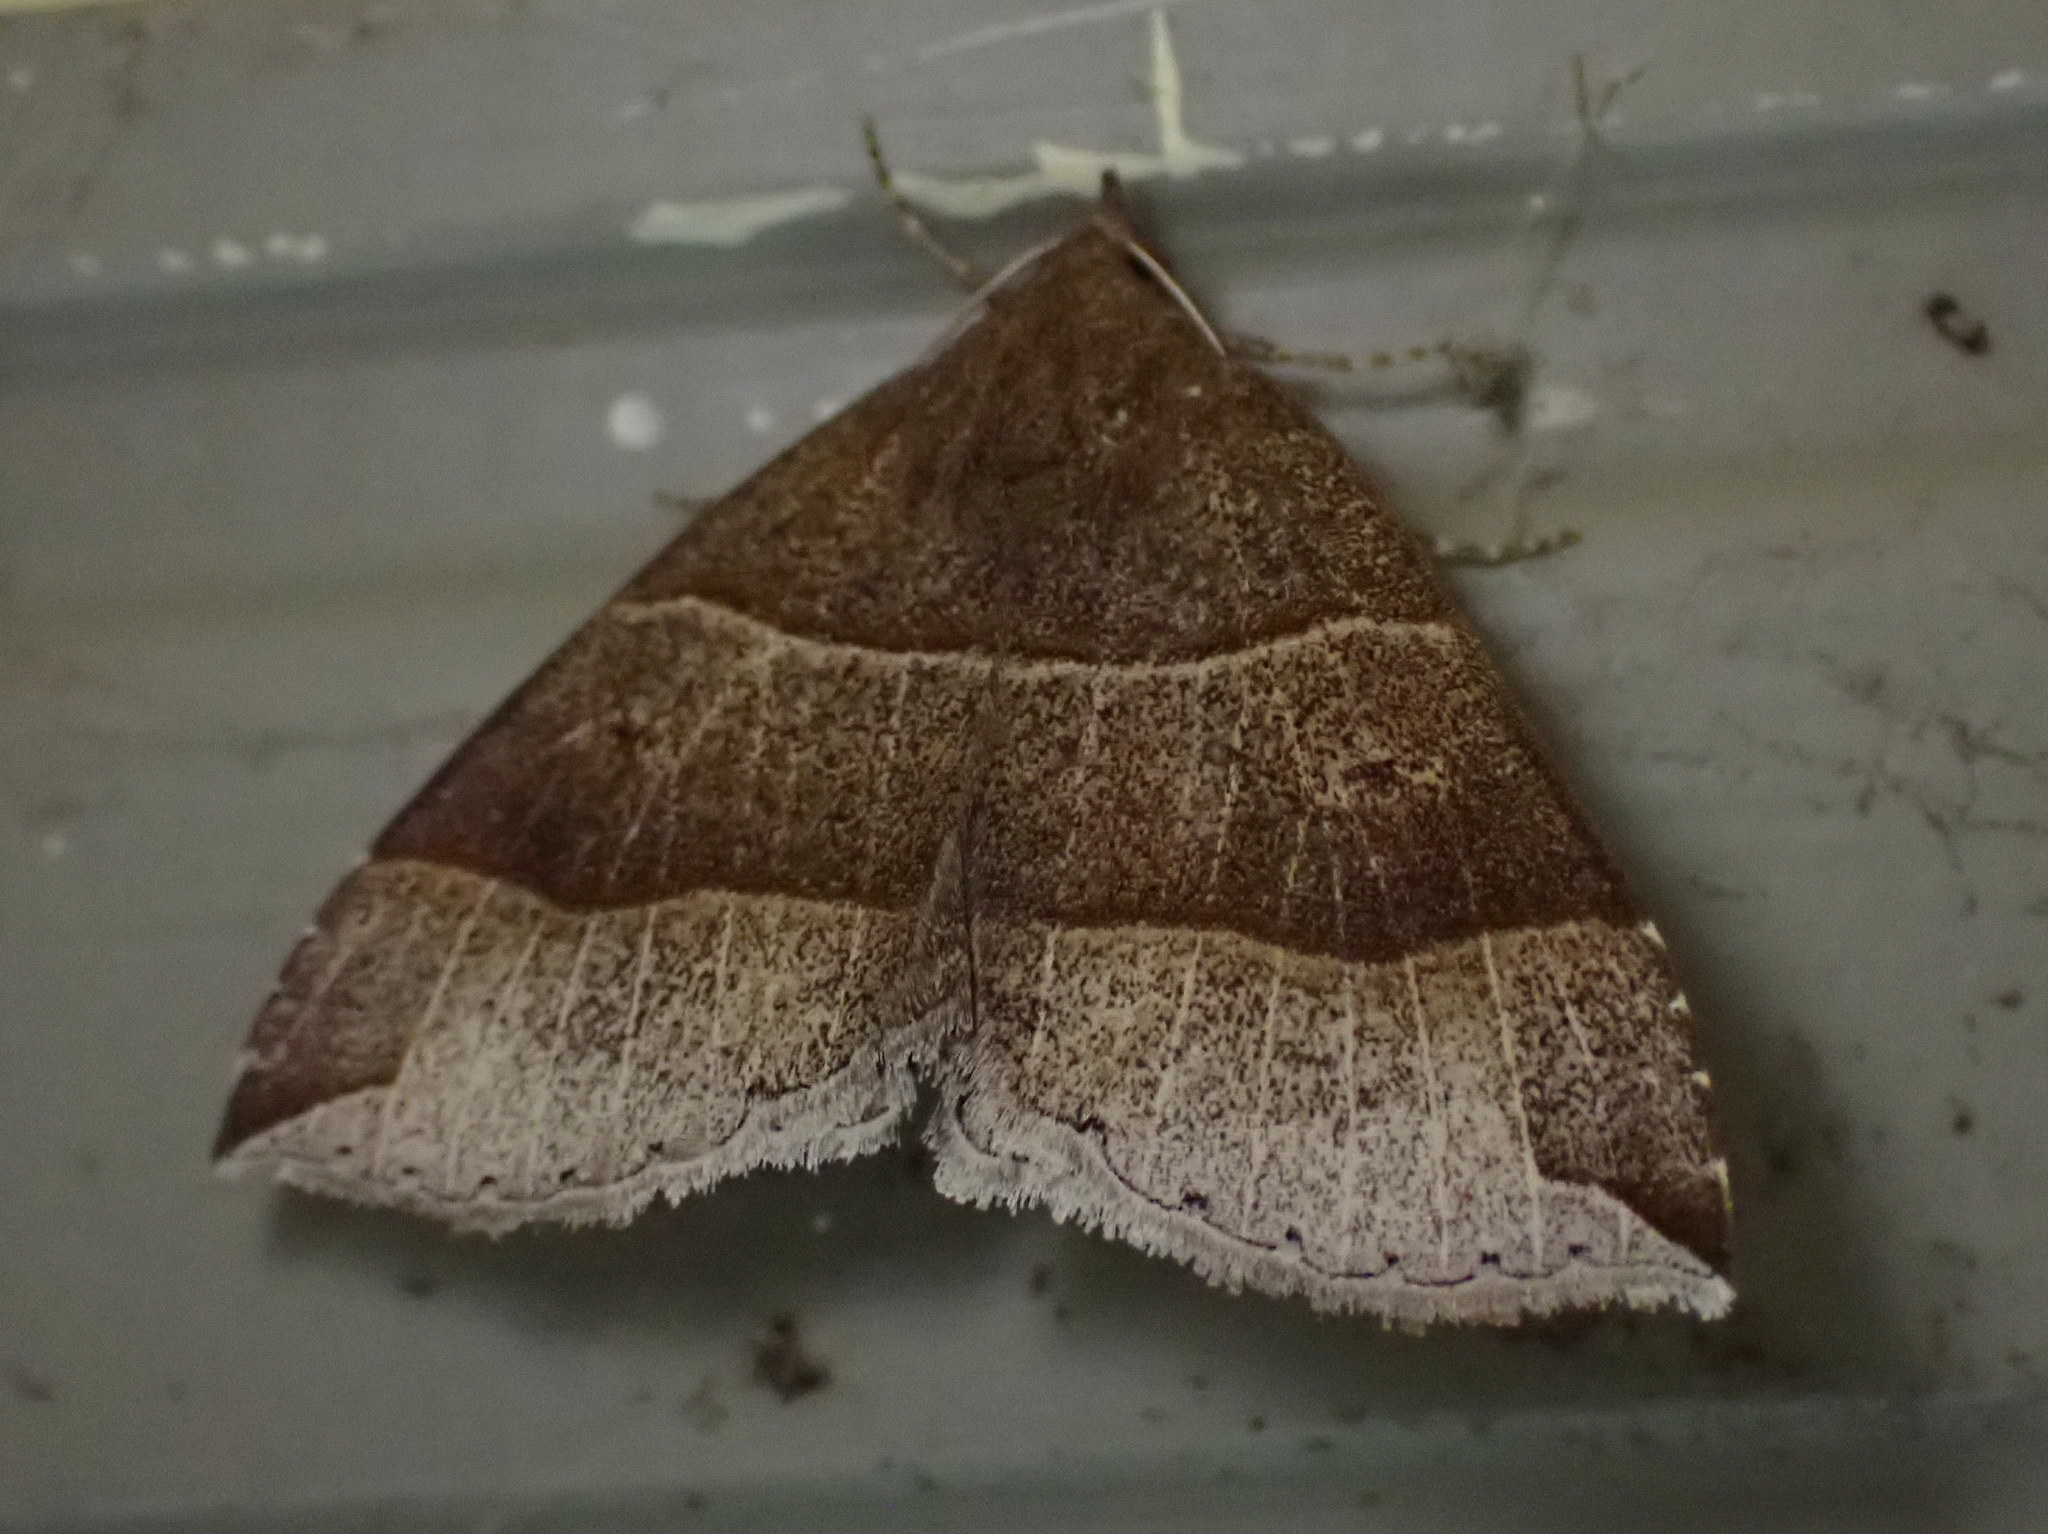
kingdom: Animalia
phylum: Arthropoda
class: Insecta
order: Lepidoptera
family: Erebidae
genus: Parallelia
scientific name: Parallelia bistriaris
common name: Maple looper moth
